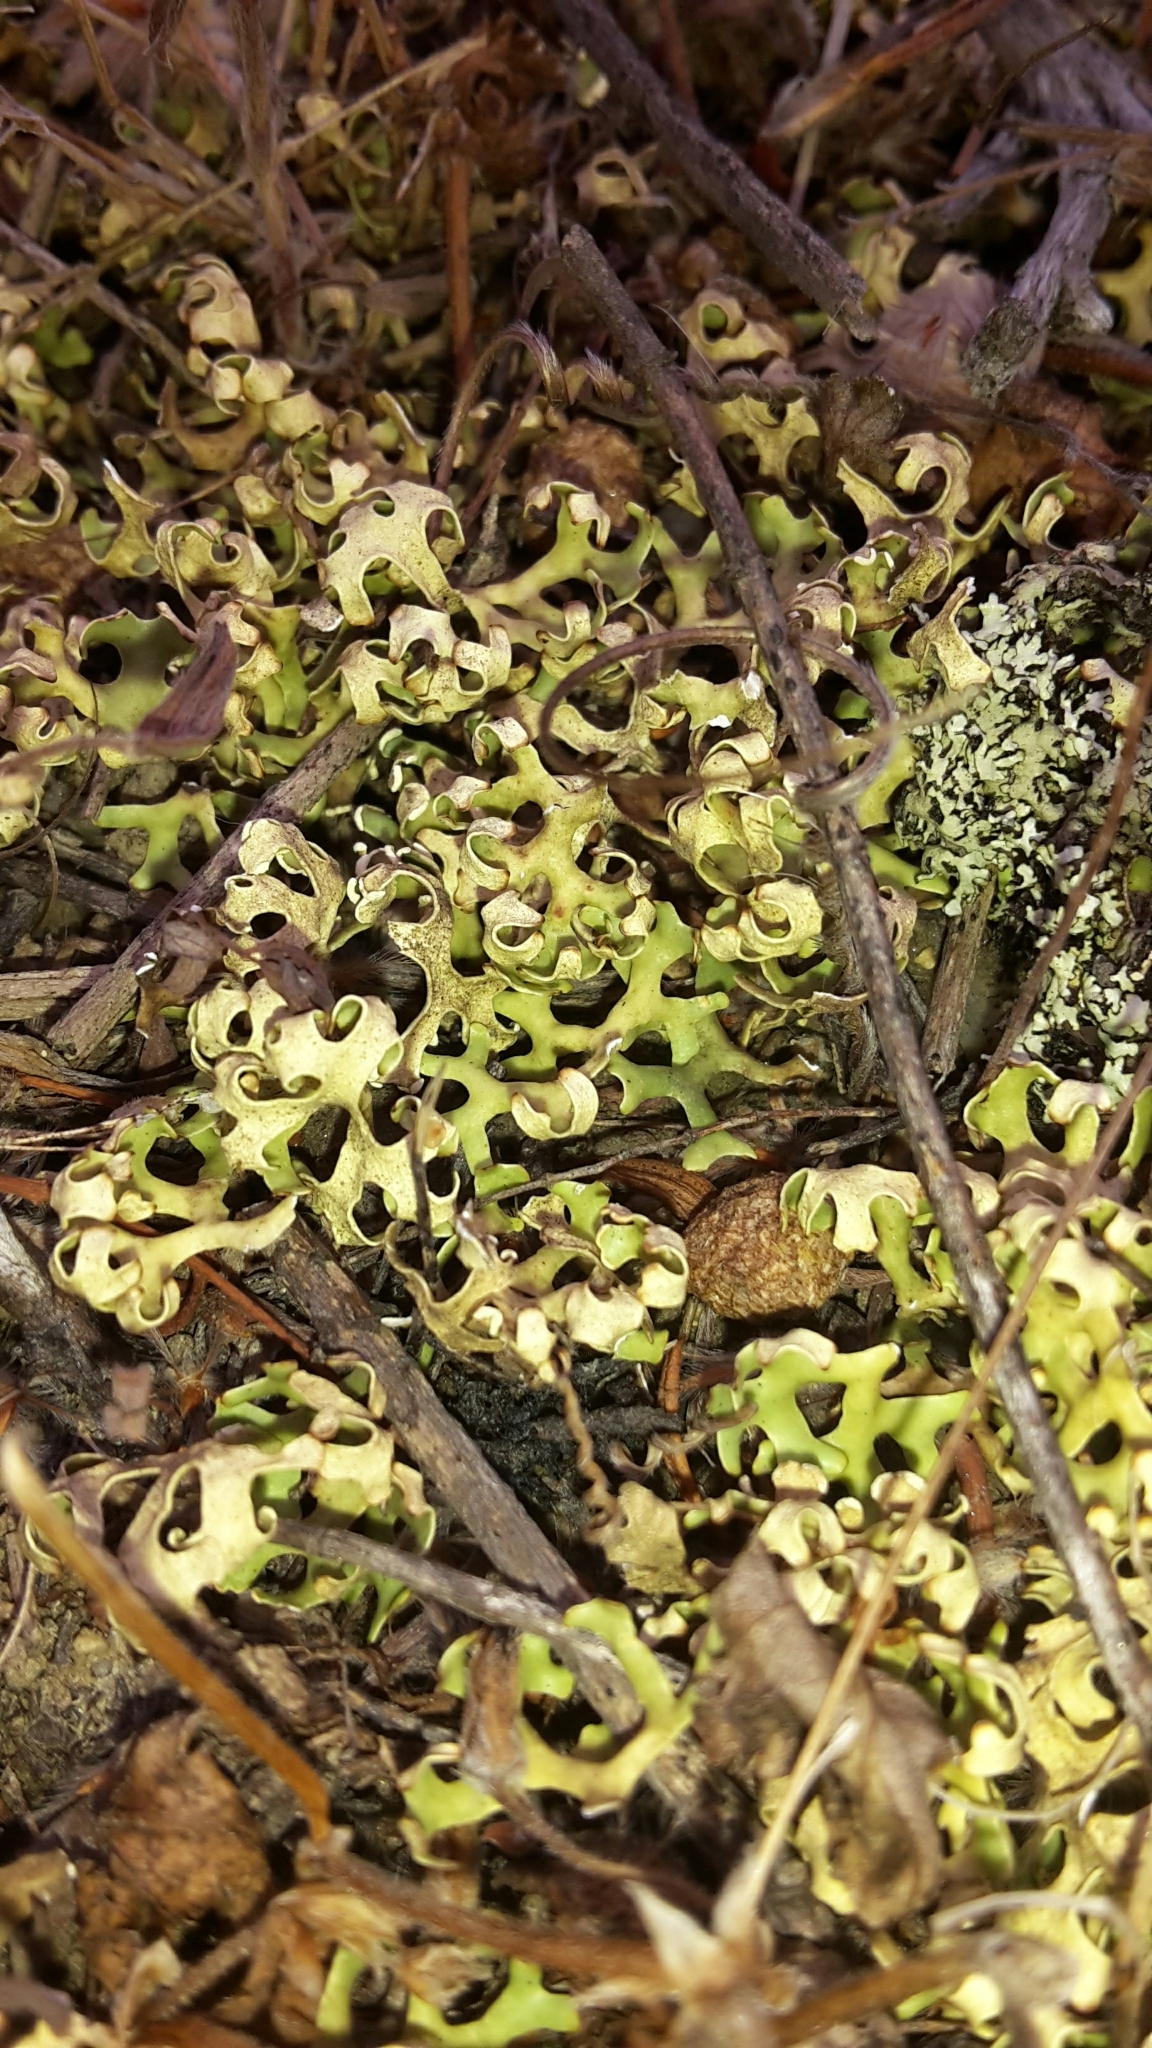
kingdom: Fungi
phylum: Ascomycota
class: Lecanoromycetes
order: Lecanorales
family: Parmeliaceae
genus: Xanthoparmelia
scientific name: Xanthoparmelia semiviridis
